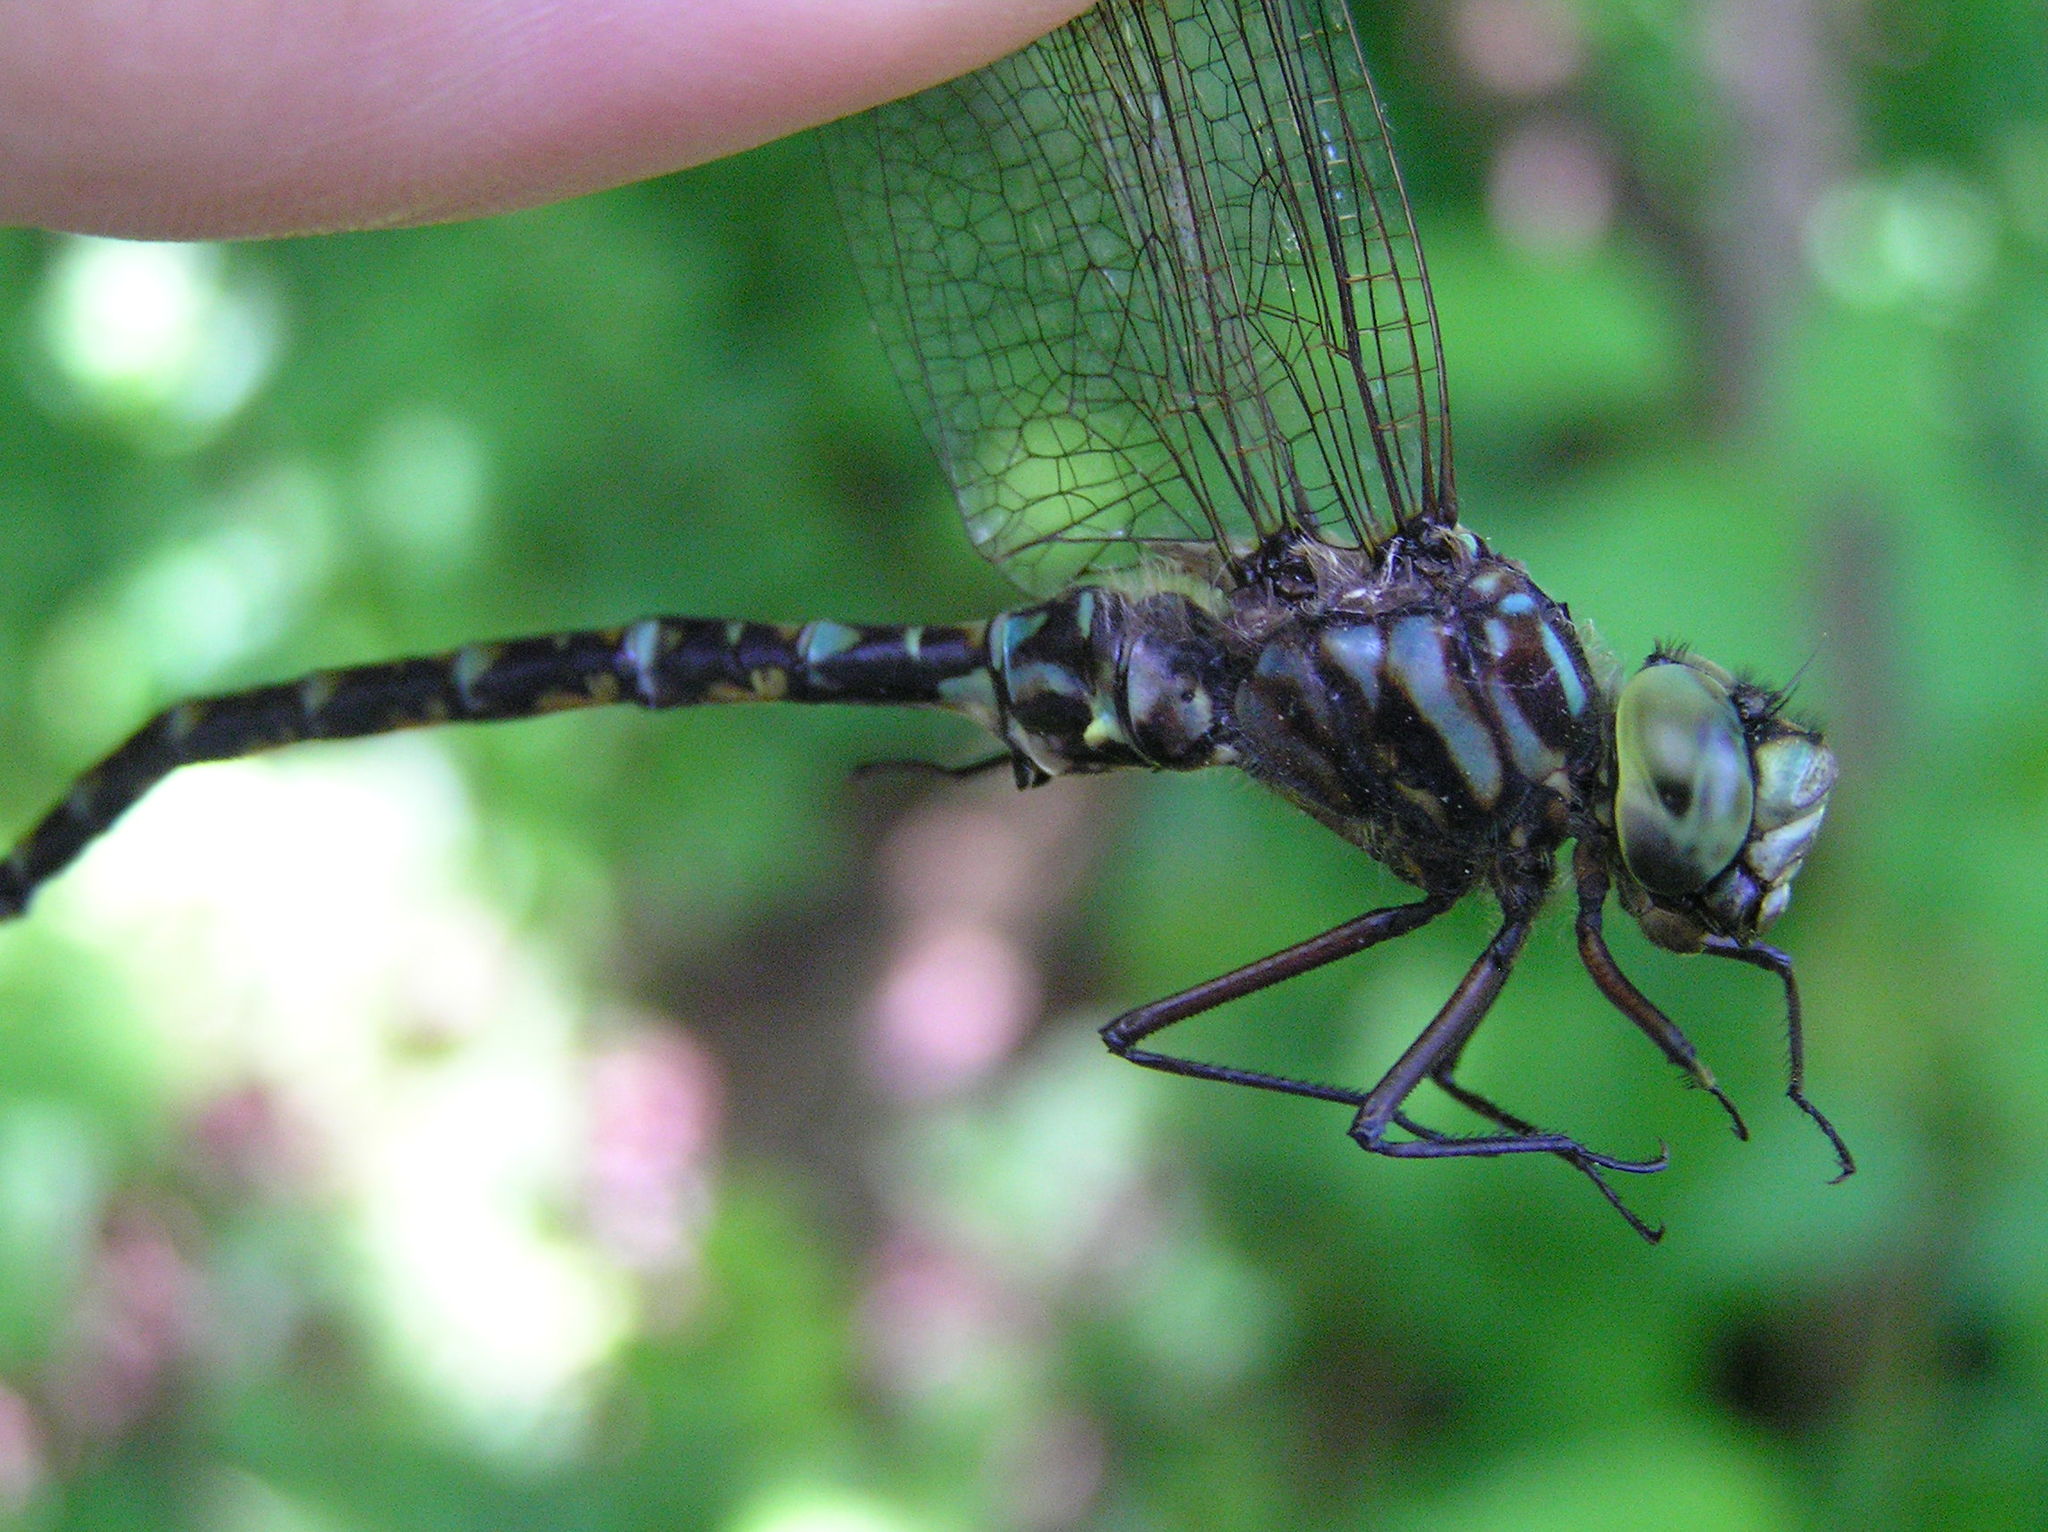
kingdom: Animalia
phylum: Arthropoda
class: Insecta
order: Odonata
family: Aeshnidae
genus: Gomphaeschna
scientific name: Gomphaeschna furcillata
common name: Harlequin darner
